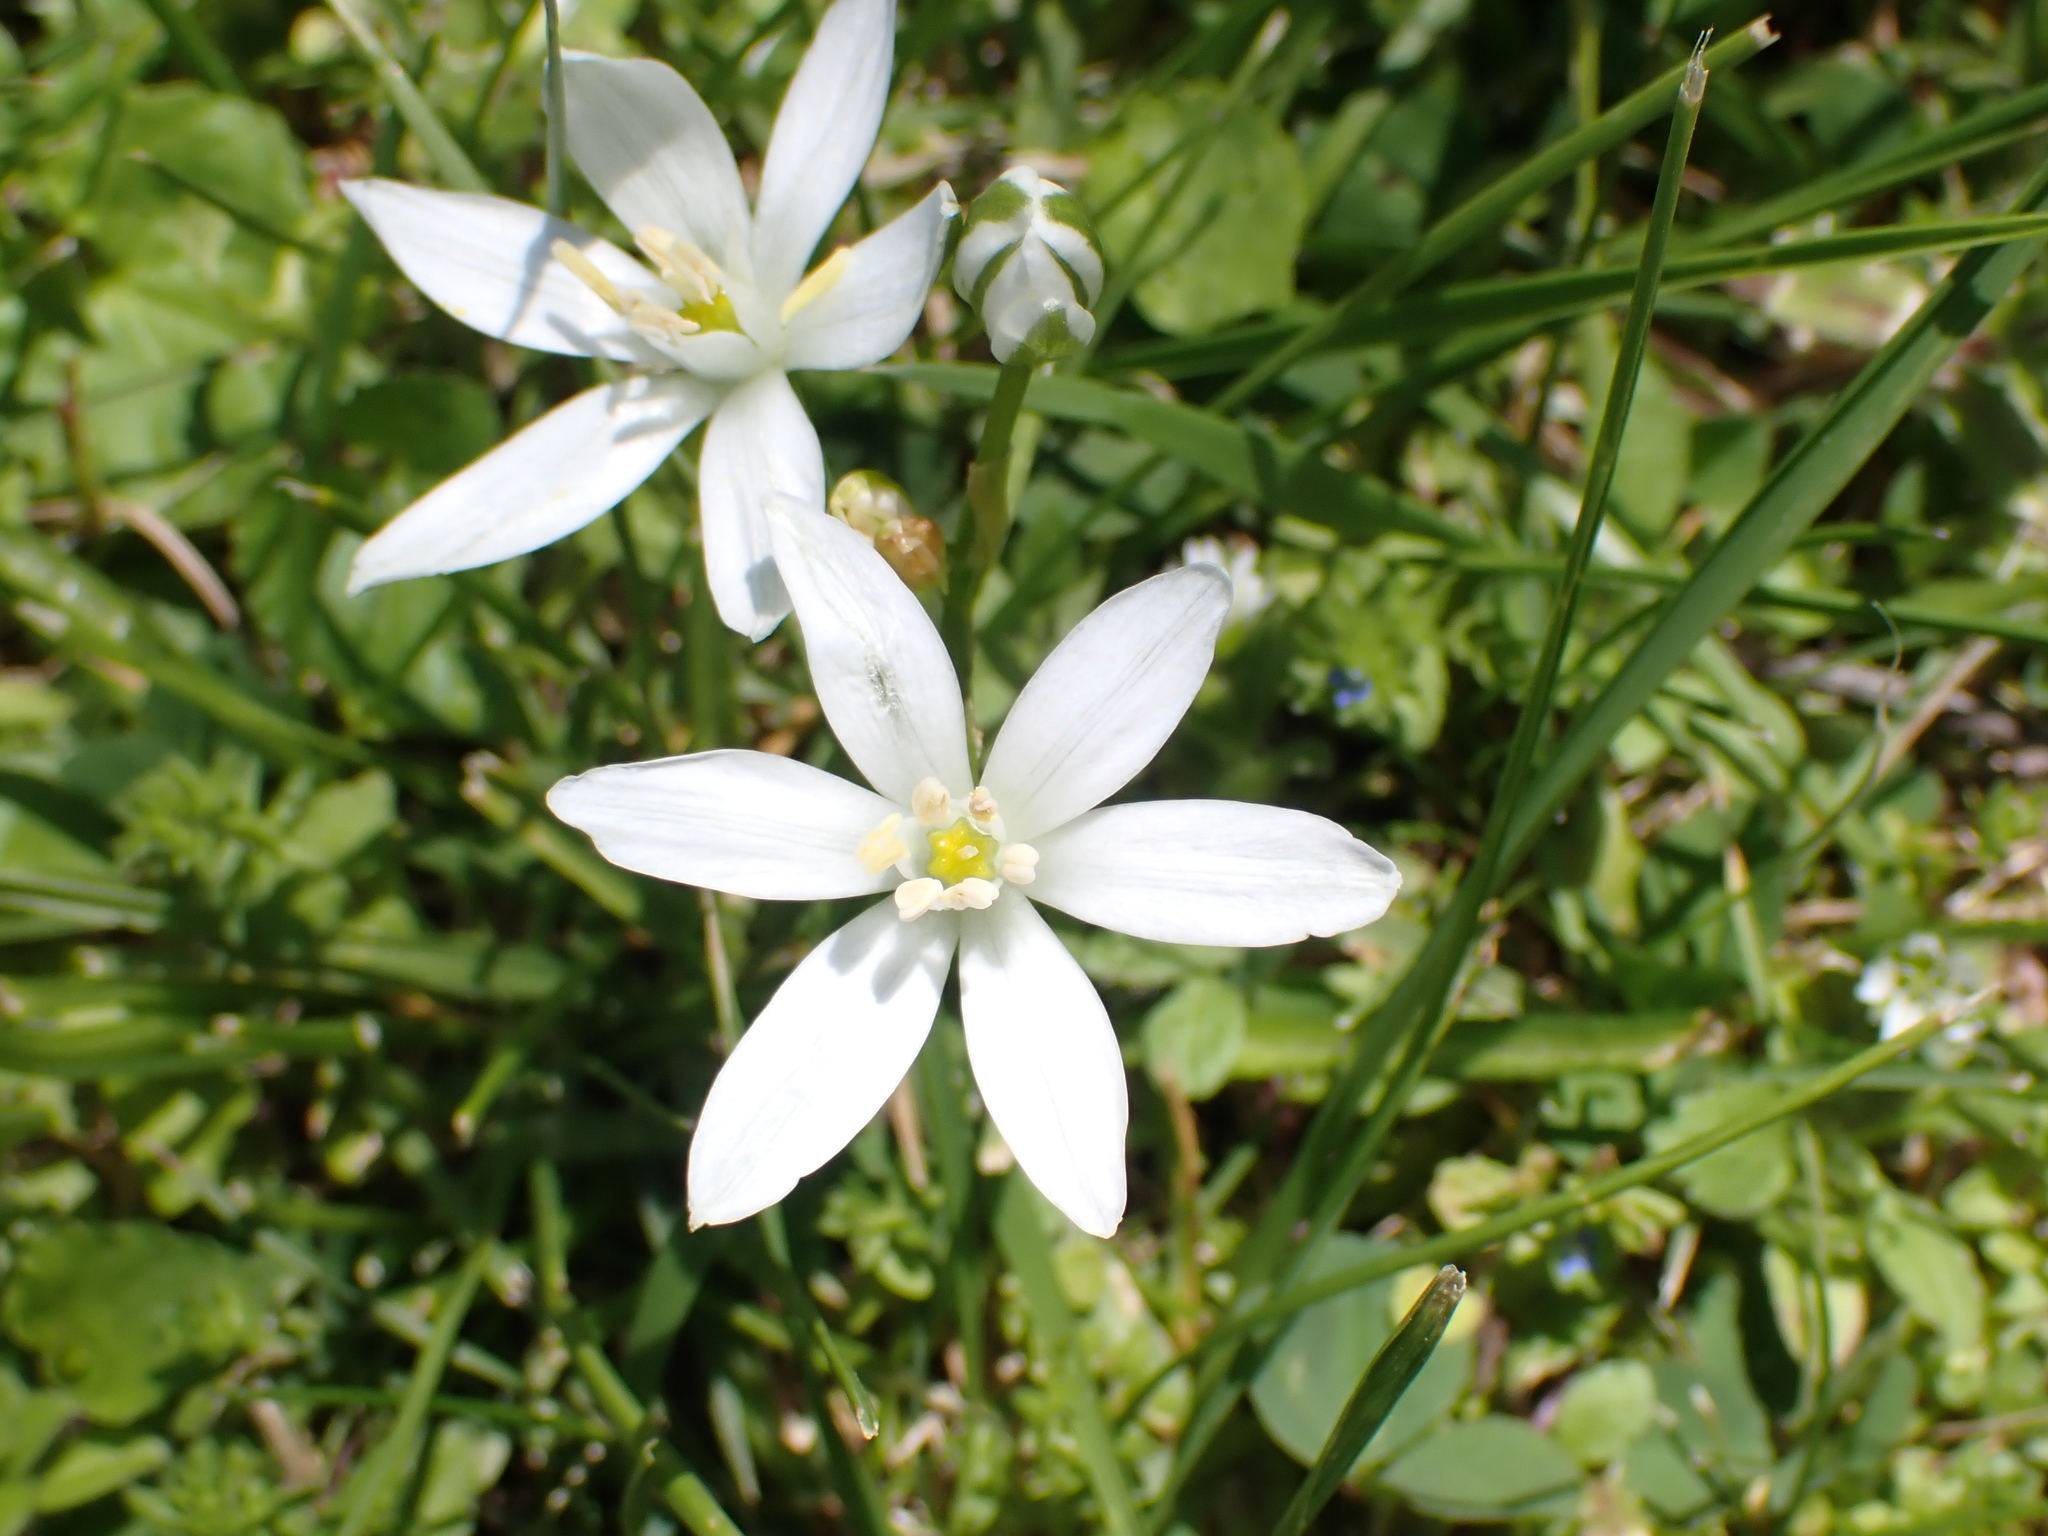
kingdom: Plantae
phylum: Tracheophyta
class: Liliopsida
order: Asparagales
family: Asparagaceae
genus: Ornithogalum
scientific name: Ornithogalum umbellatum
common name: Garden star-of-bethlehem
